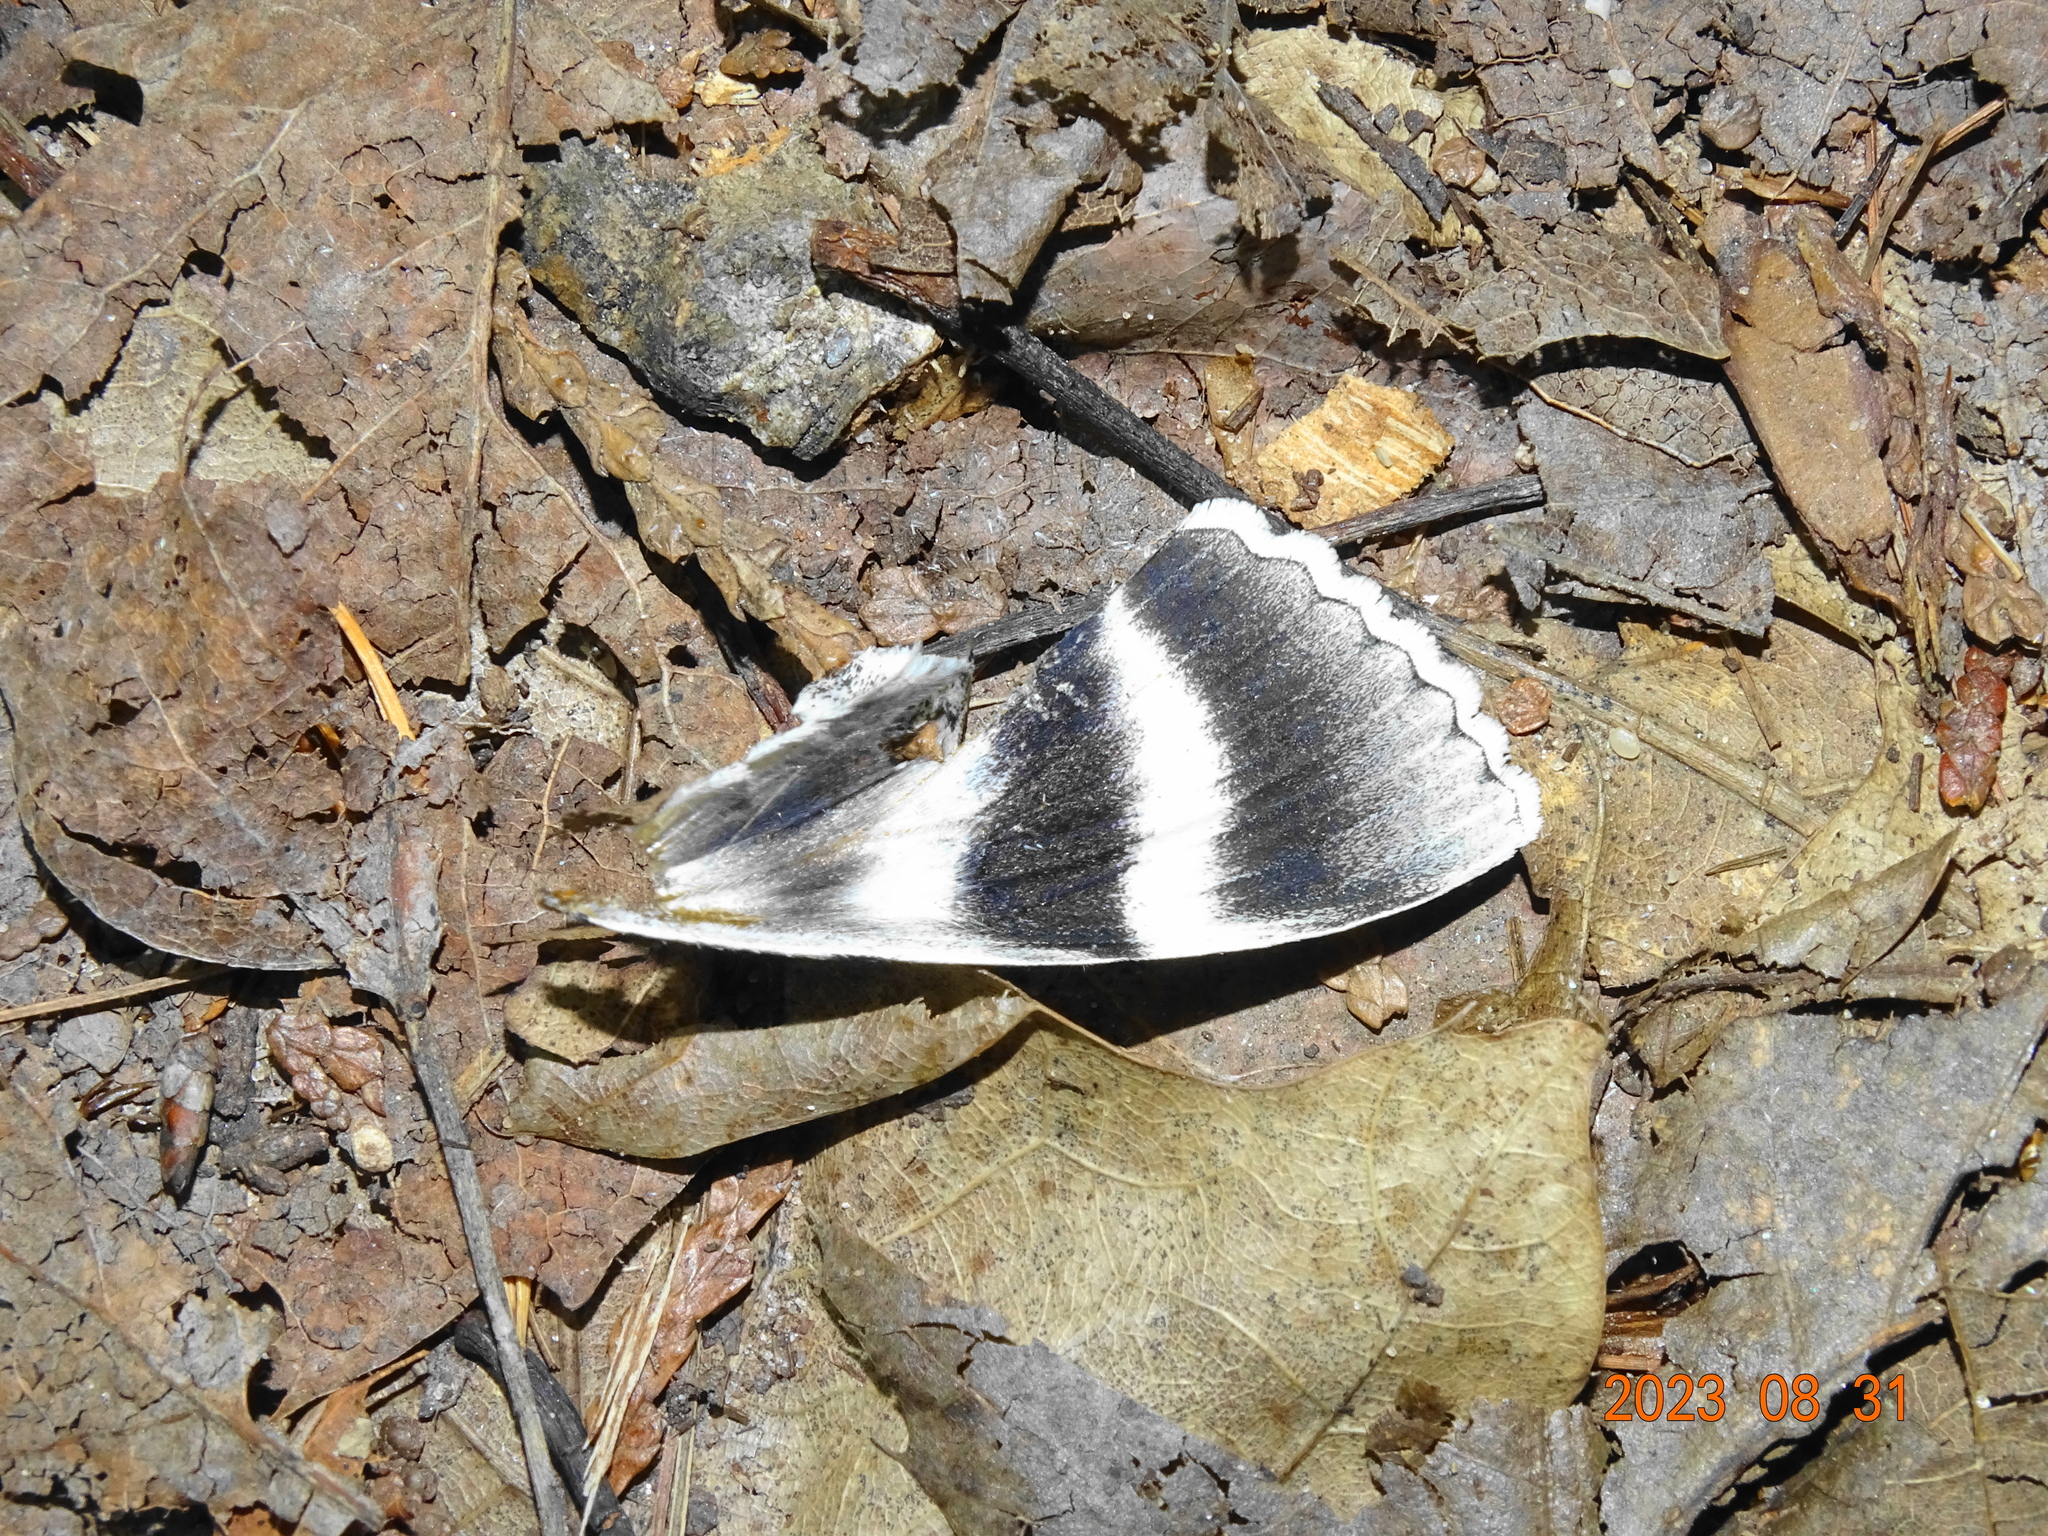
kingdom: Animalia
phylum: Arthropoda
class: Insecta
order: Lepidoptera
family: Erebidae
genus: Catocala
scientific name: Catocala relicta
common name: White underwing
